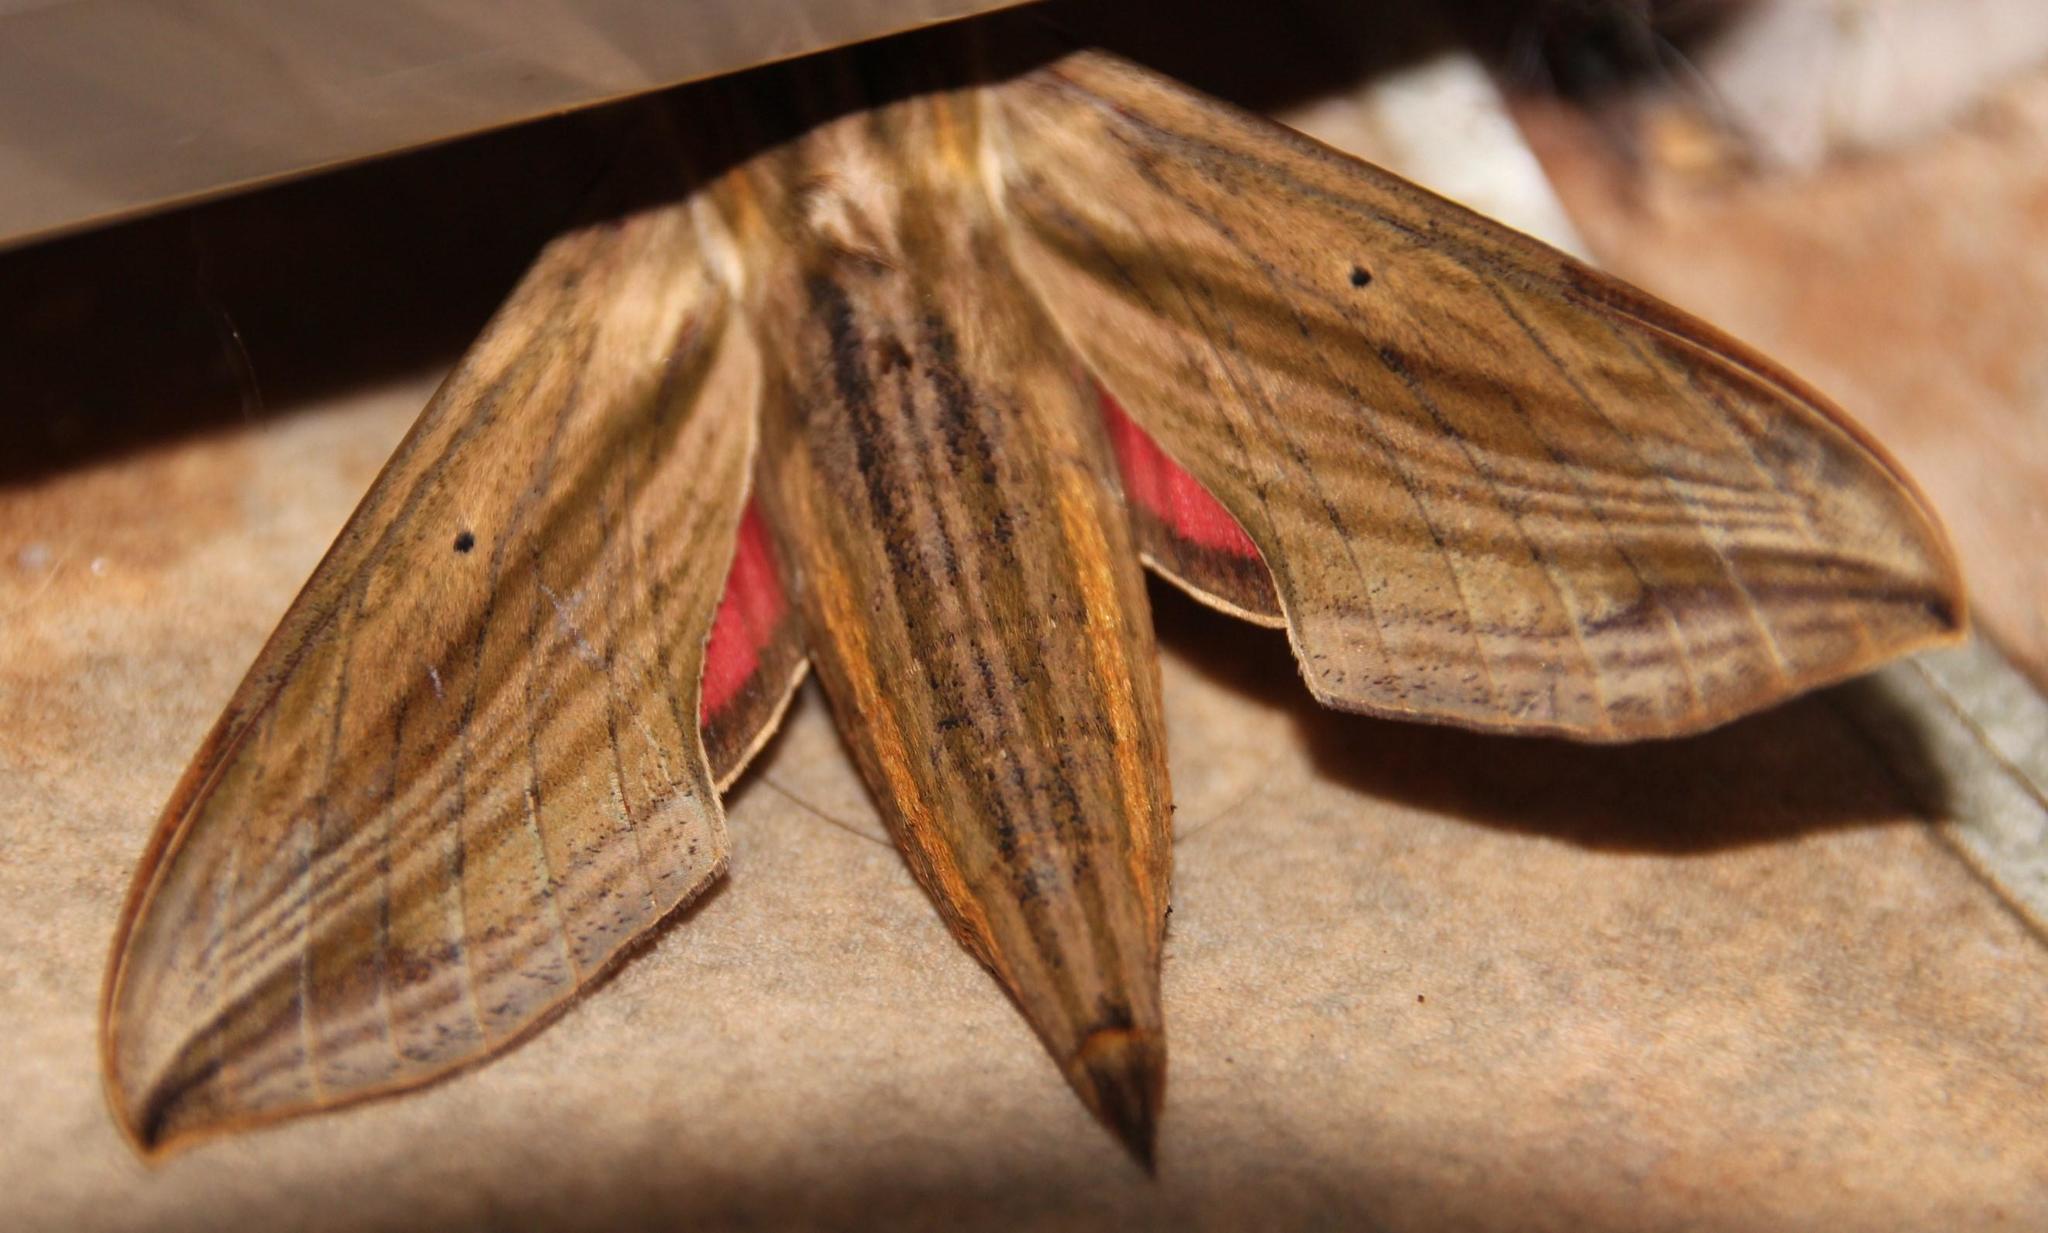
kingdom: Animalia
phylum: Arthropoda
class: Insecta
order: Lepidoptera
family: Sphingidae
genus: Hippotion
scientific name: Hippotion eson
